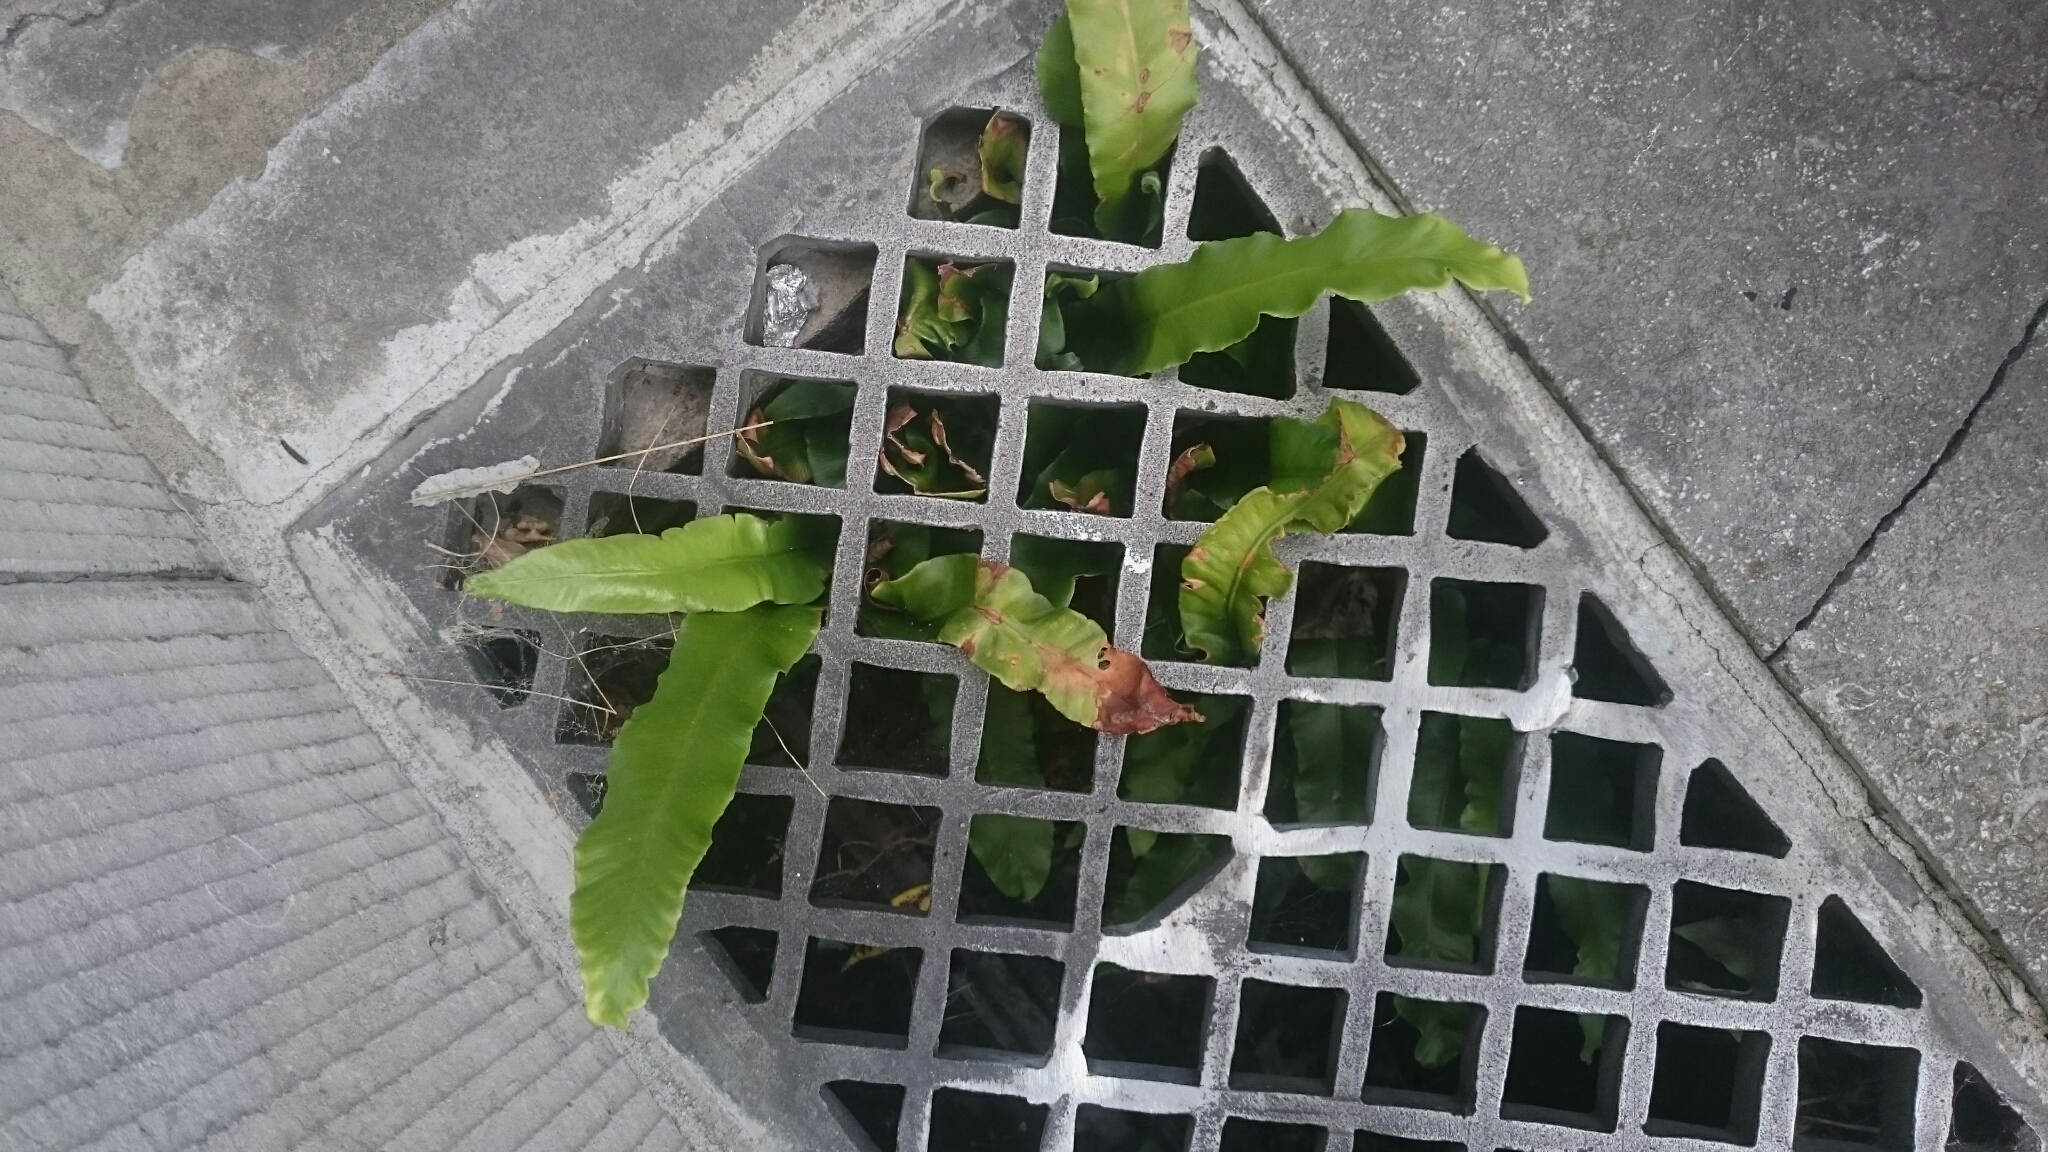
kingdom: Plantae
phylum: Tracheophyta
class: Polypodiopsida
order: Polypodiales
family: Aspleniaceae
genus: Asplenium
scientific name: Asplenium scolopendrium
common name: Hart's-tongue fern
